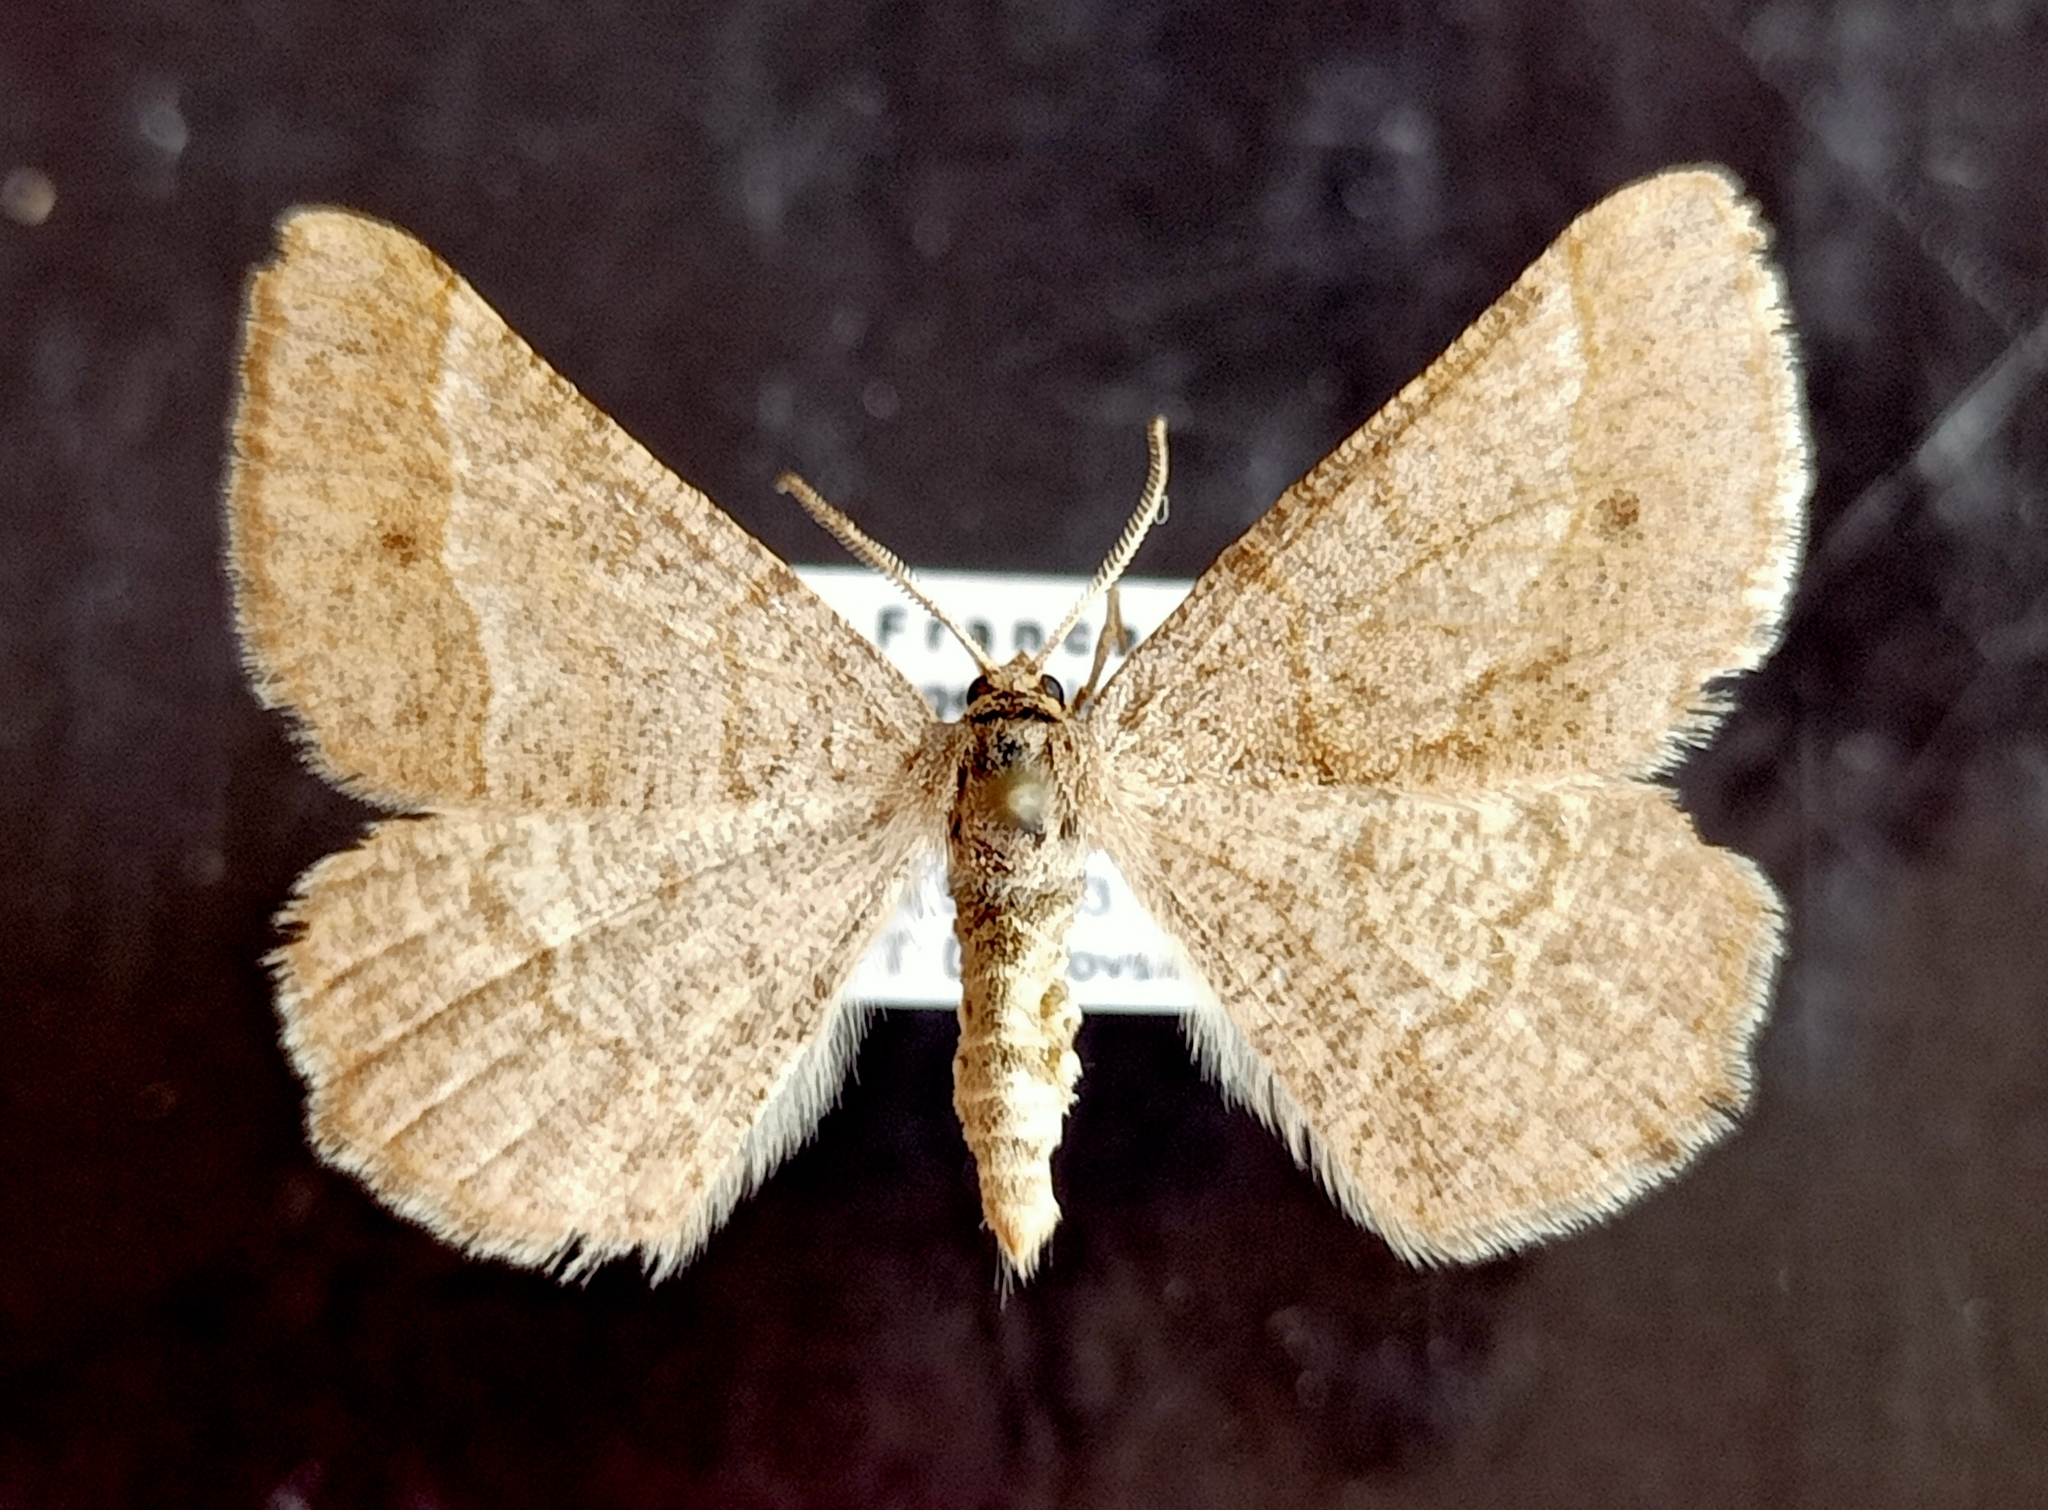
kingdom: Animalia
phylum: Arthropoda
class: Insecta
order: Lepidoptera
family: Geometridae
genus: Tephrina
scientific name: Tephrina murinaria
